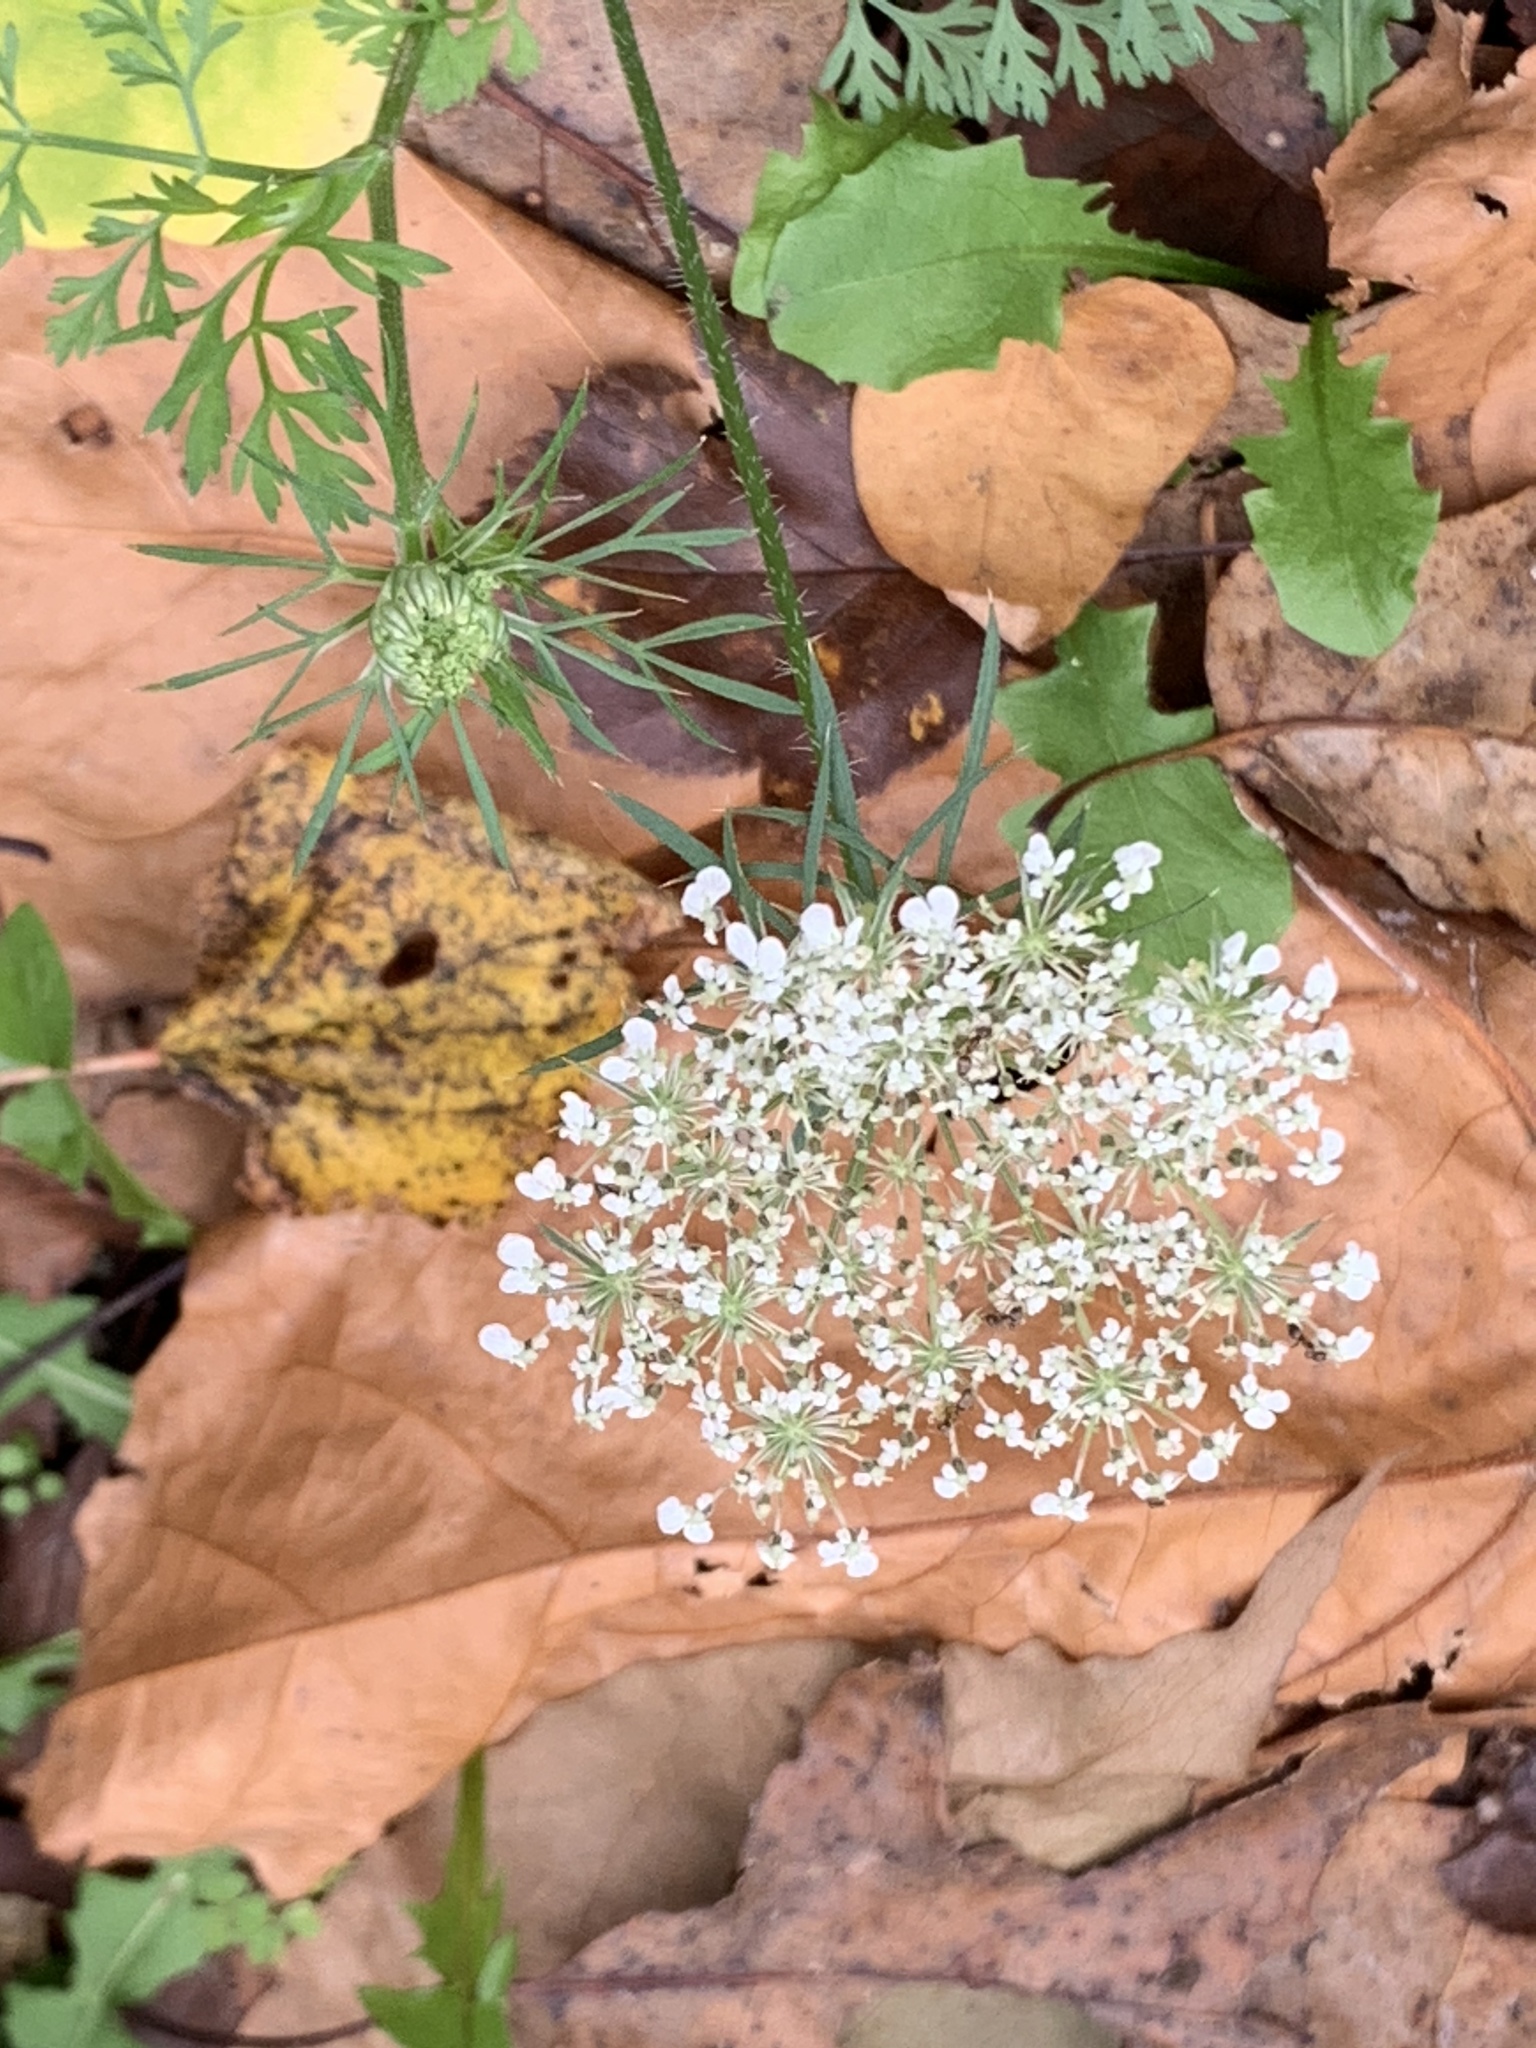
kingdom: Plantae
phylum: Tracheophyta
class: Magnoliopsida
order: Apiales
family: Apiaceae
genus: Daucus
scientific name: Daucus carota
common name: Wild carrot
